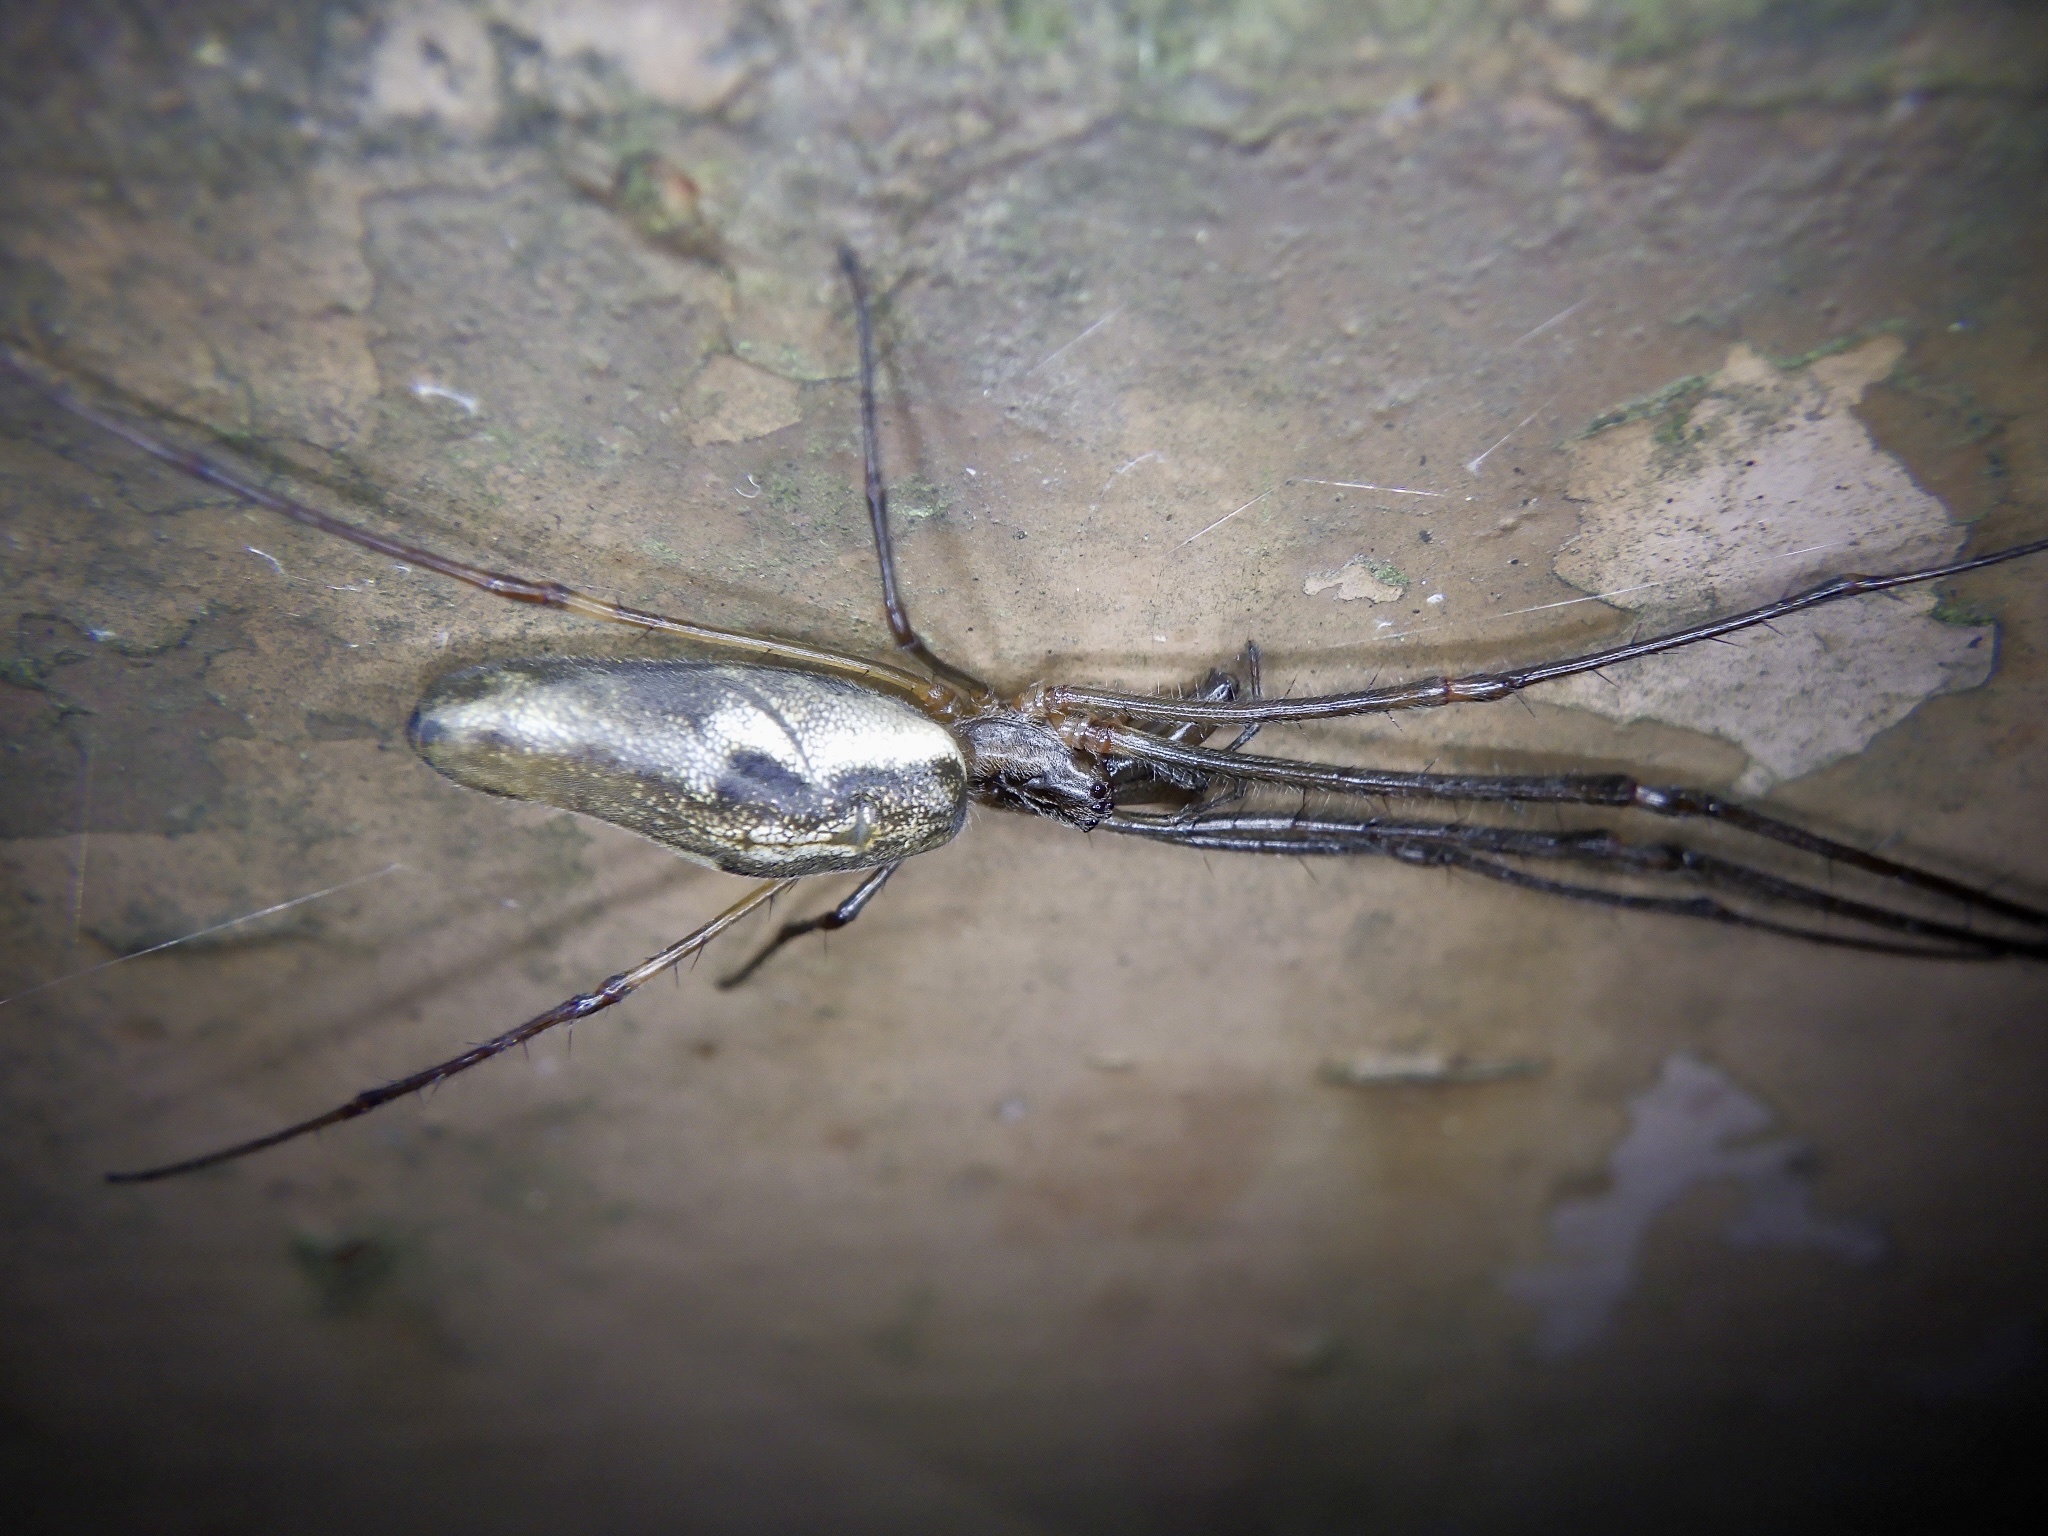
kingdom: Animalia
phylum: Arthropoda
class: Arachnida
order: Araneae
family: Tetragnathidae
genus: Tetragnatha
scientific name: Tetragnatha praedonia
